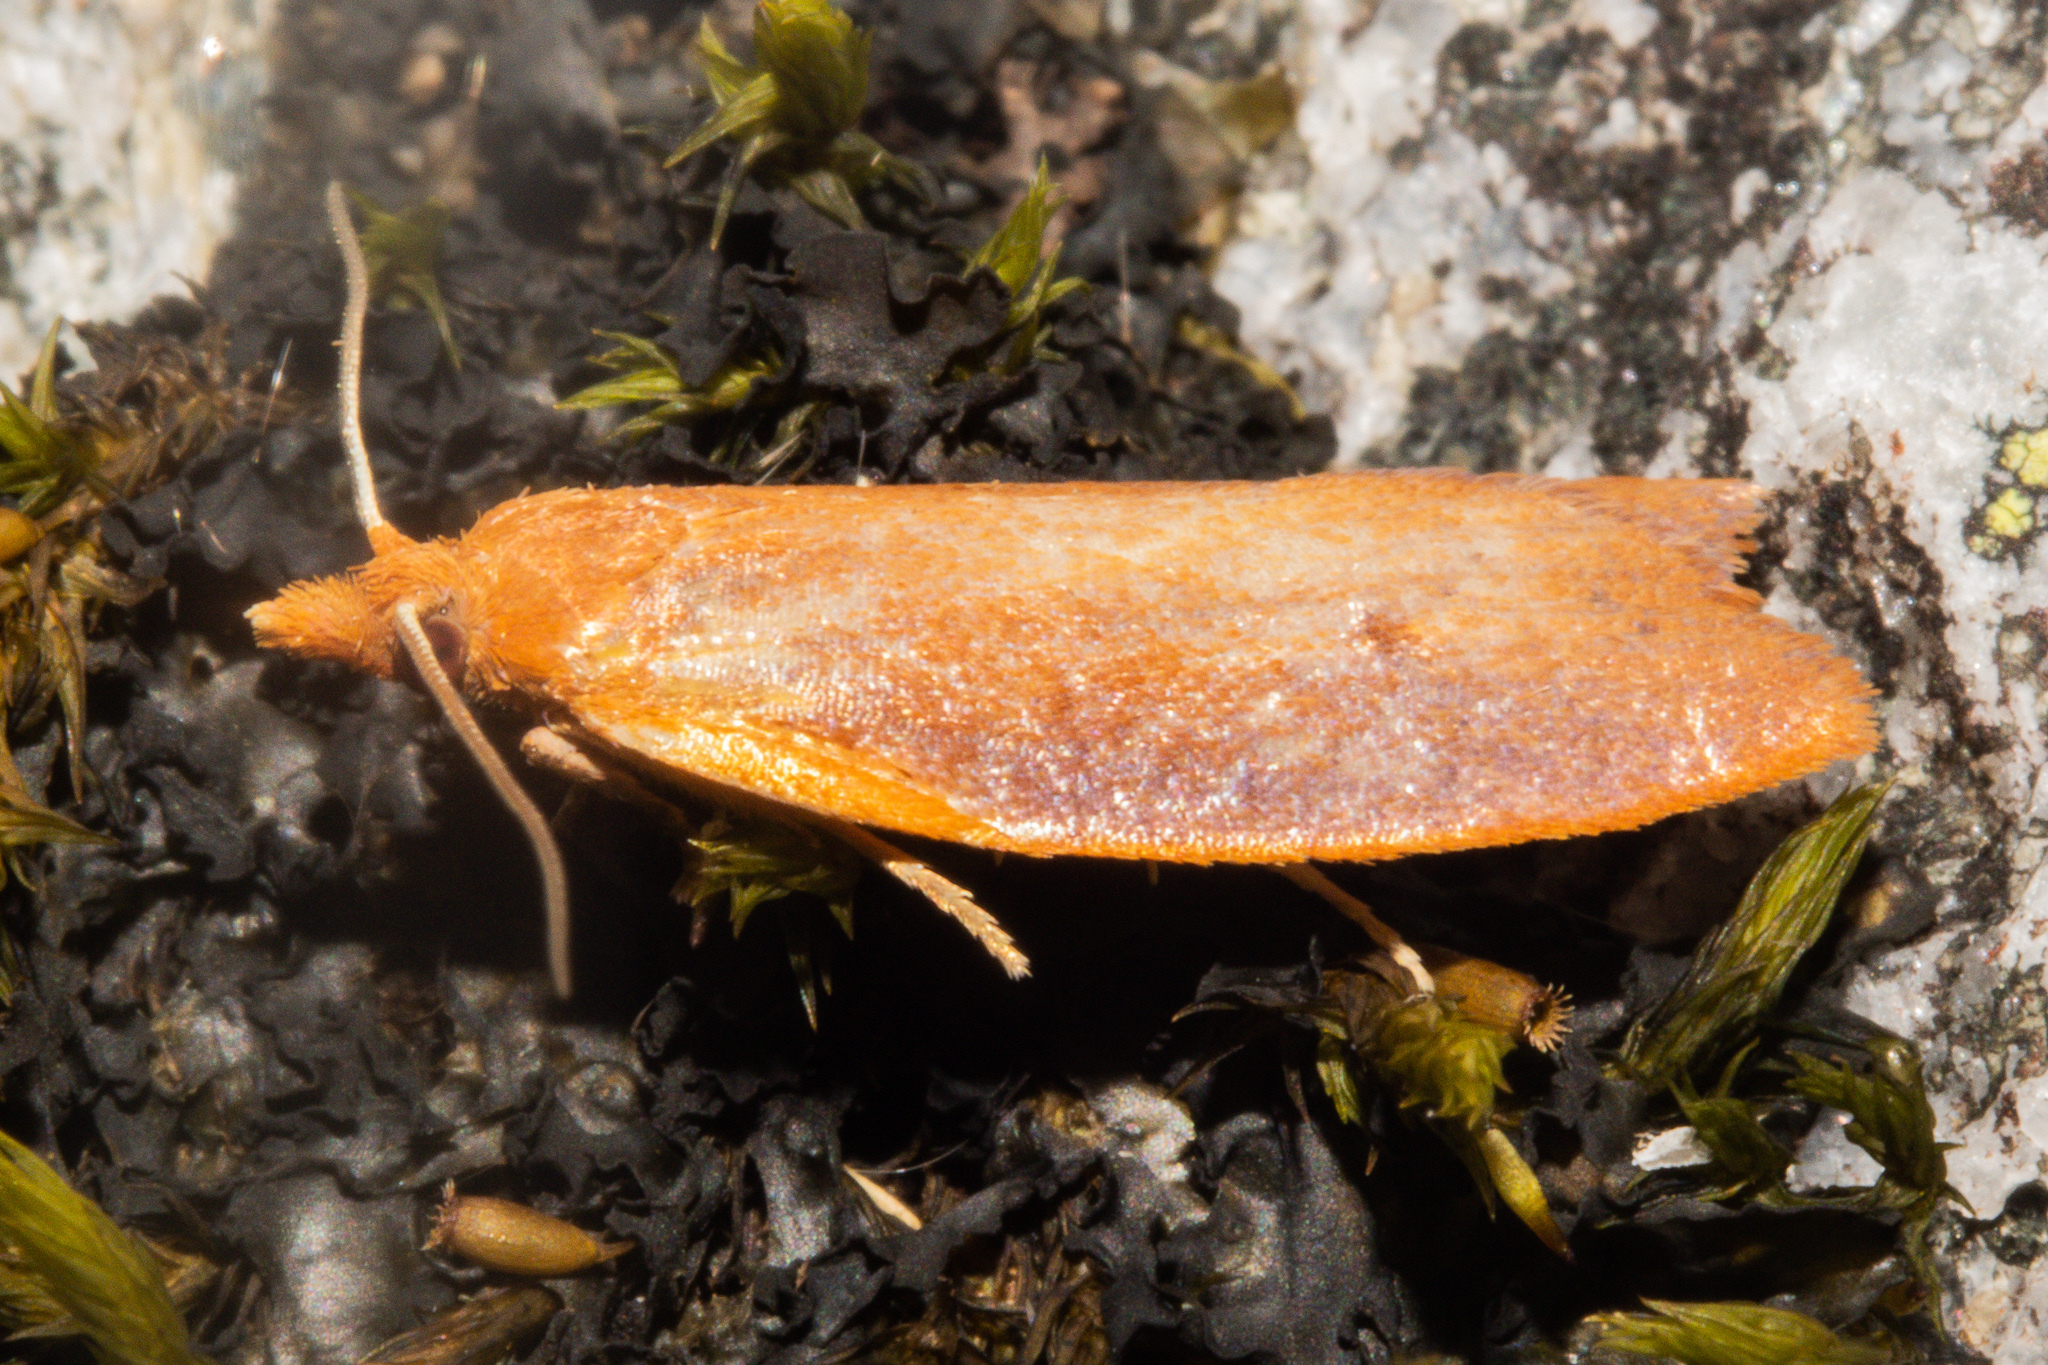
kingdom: Animalia
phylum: Arthropoda
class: Insecta
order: Lepidoptera
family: Tortricidae
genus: Planotortrix
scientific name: Planotortrix flammea
